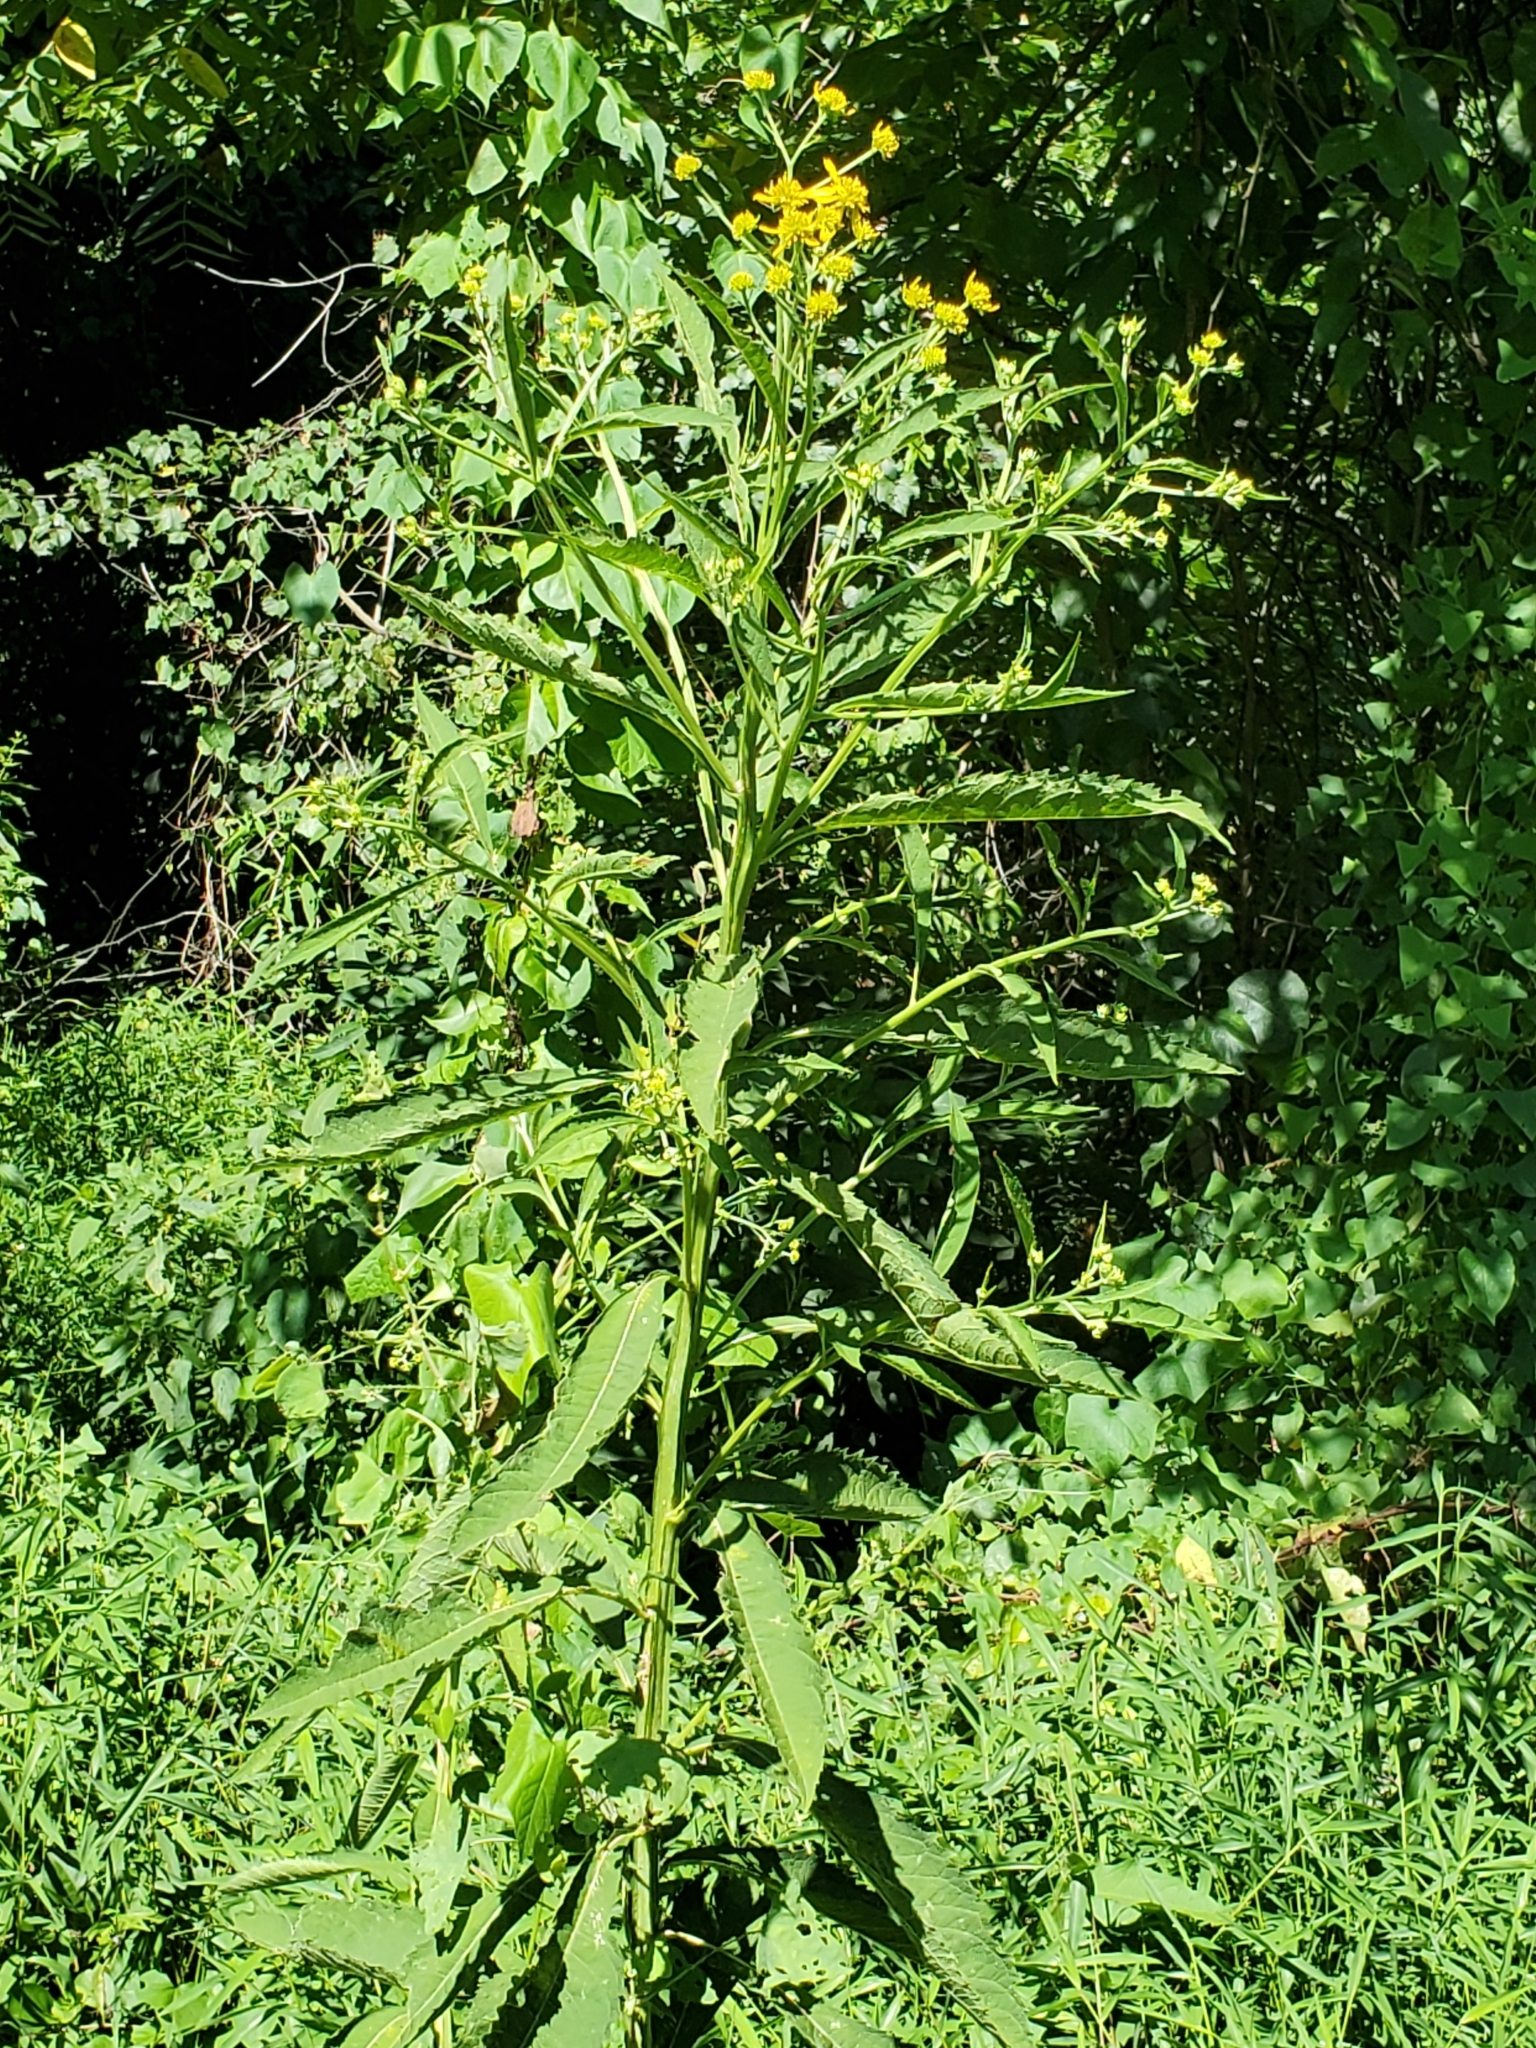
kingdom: Plantae
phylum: Tracheophyta
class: Magnoliopsida
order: Asterales
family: Asteraceae
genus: Verbesina
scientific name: Verbesina alternifolia
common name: Wingstem
